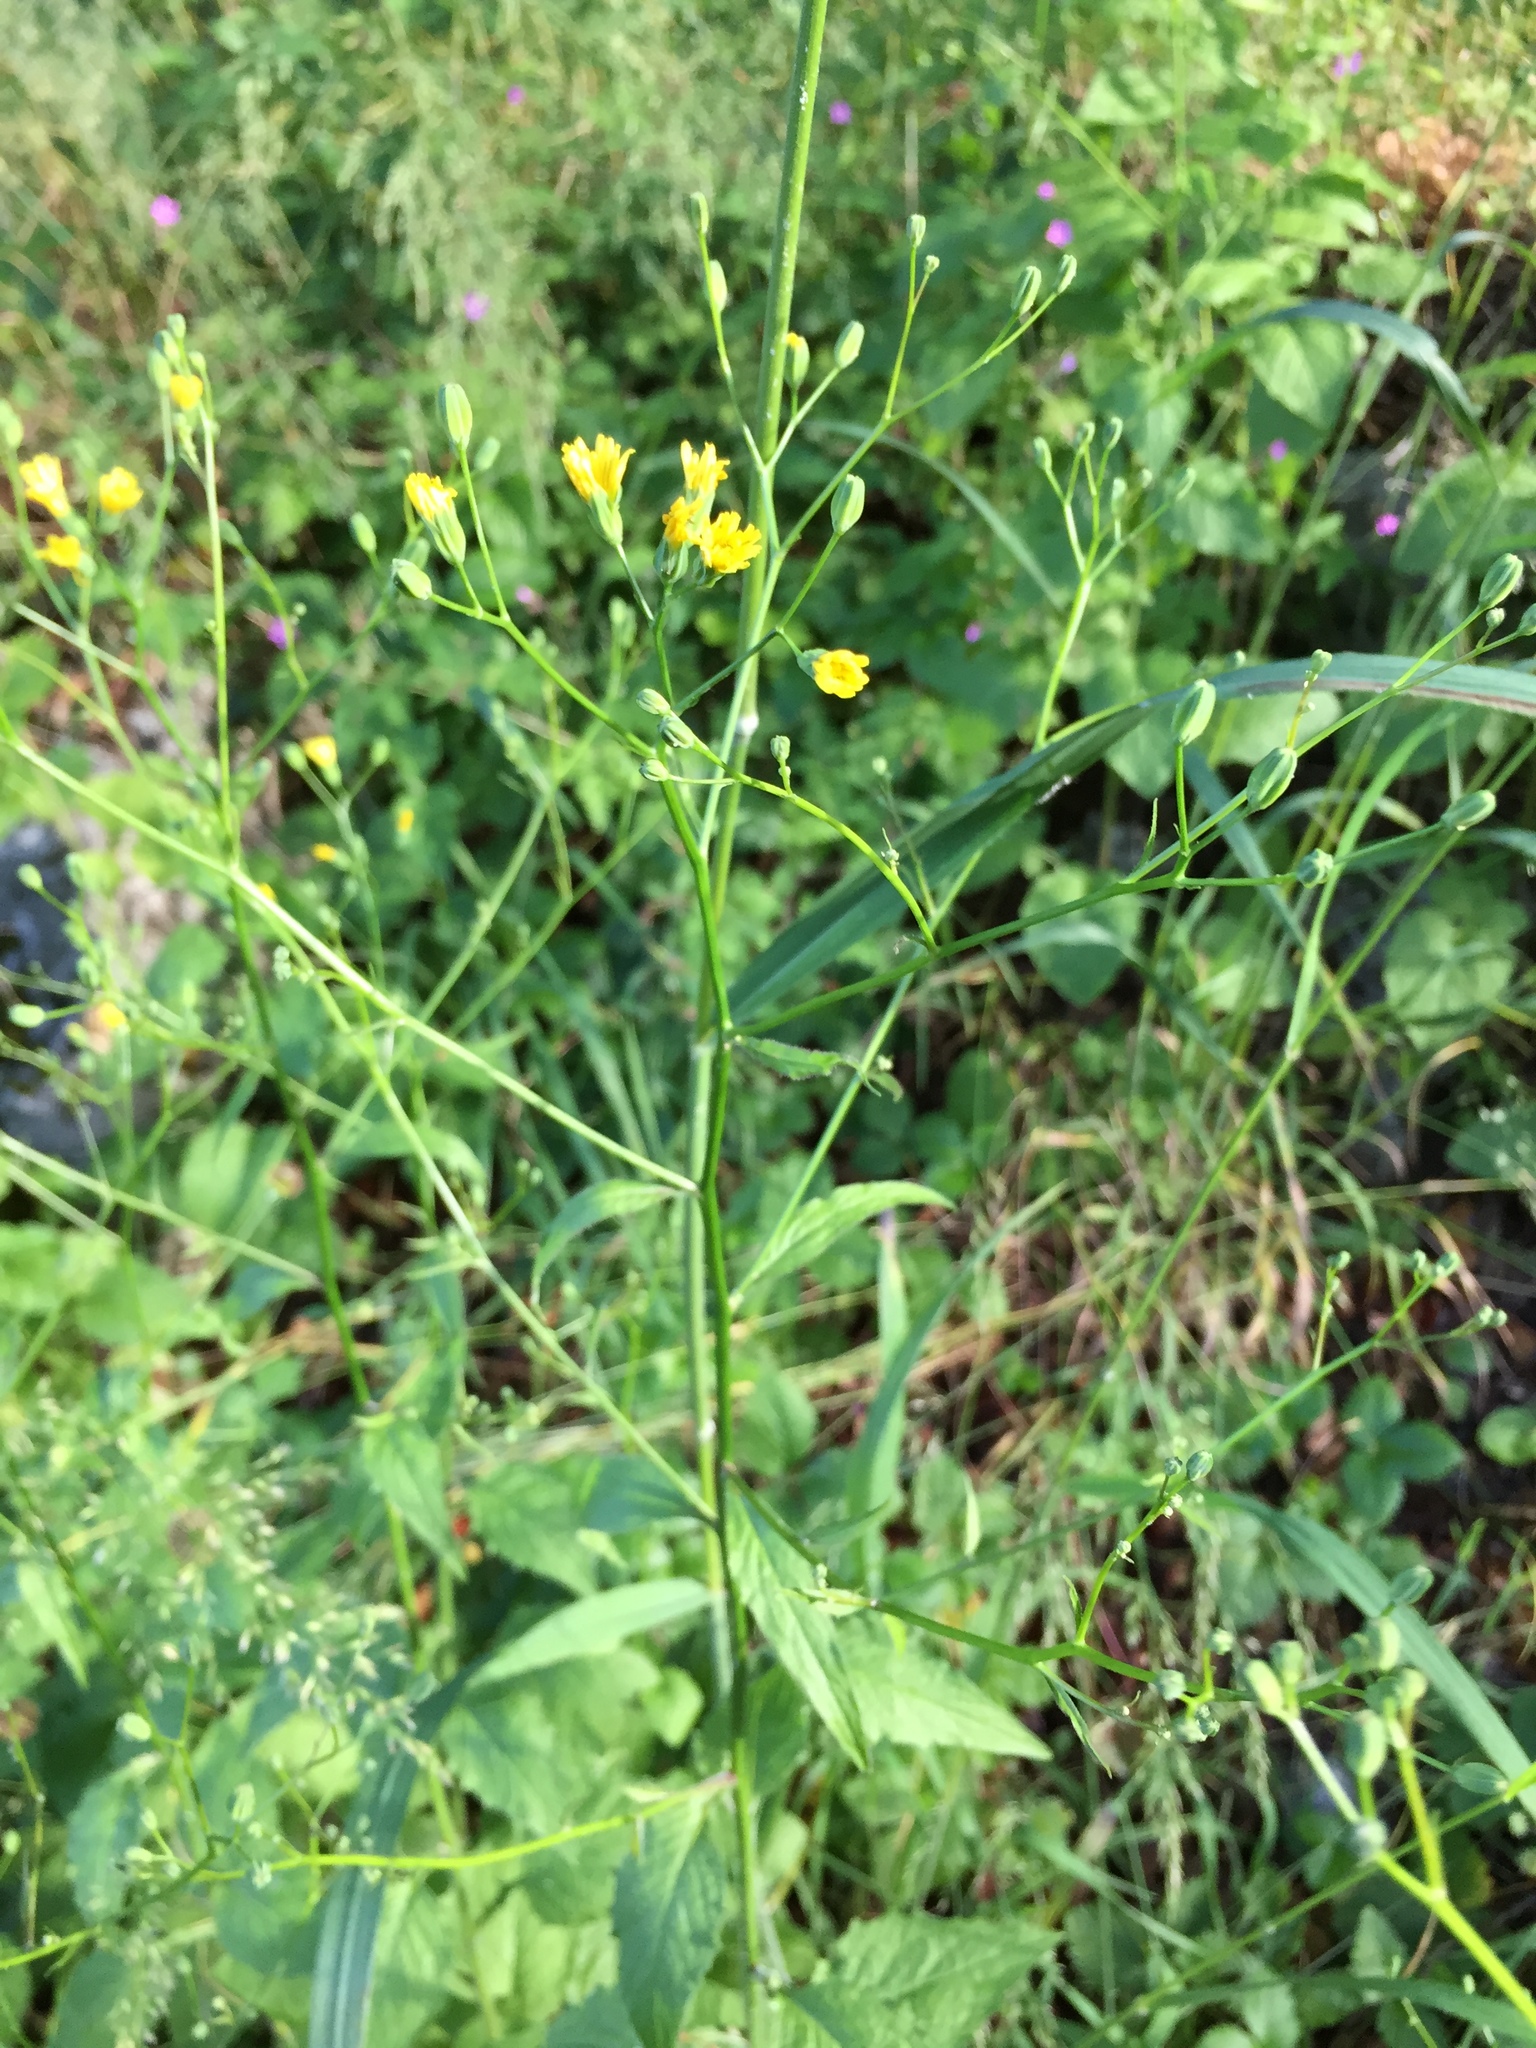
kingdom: Plantae
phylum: Tracheophyta
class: Magnoliopsida
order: Asterales
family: Asteraceae
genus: Lapsana
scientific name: Lapsana communis
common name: Nipplewort
